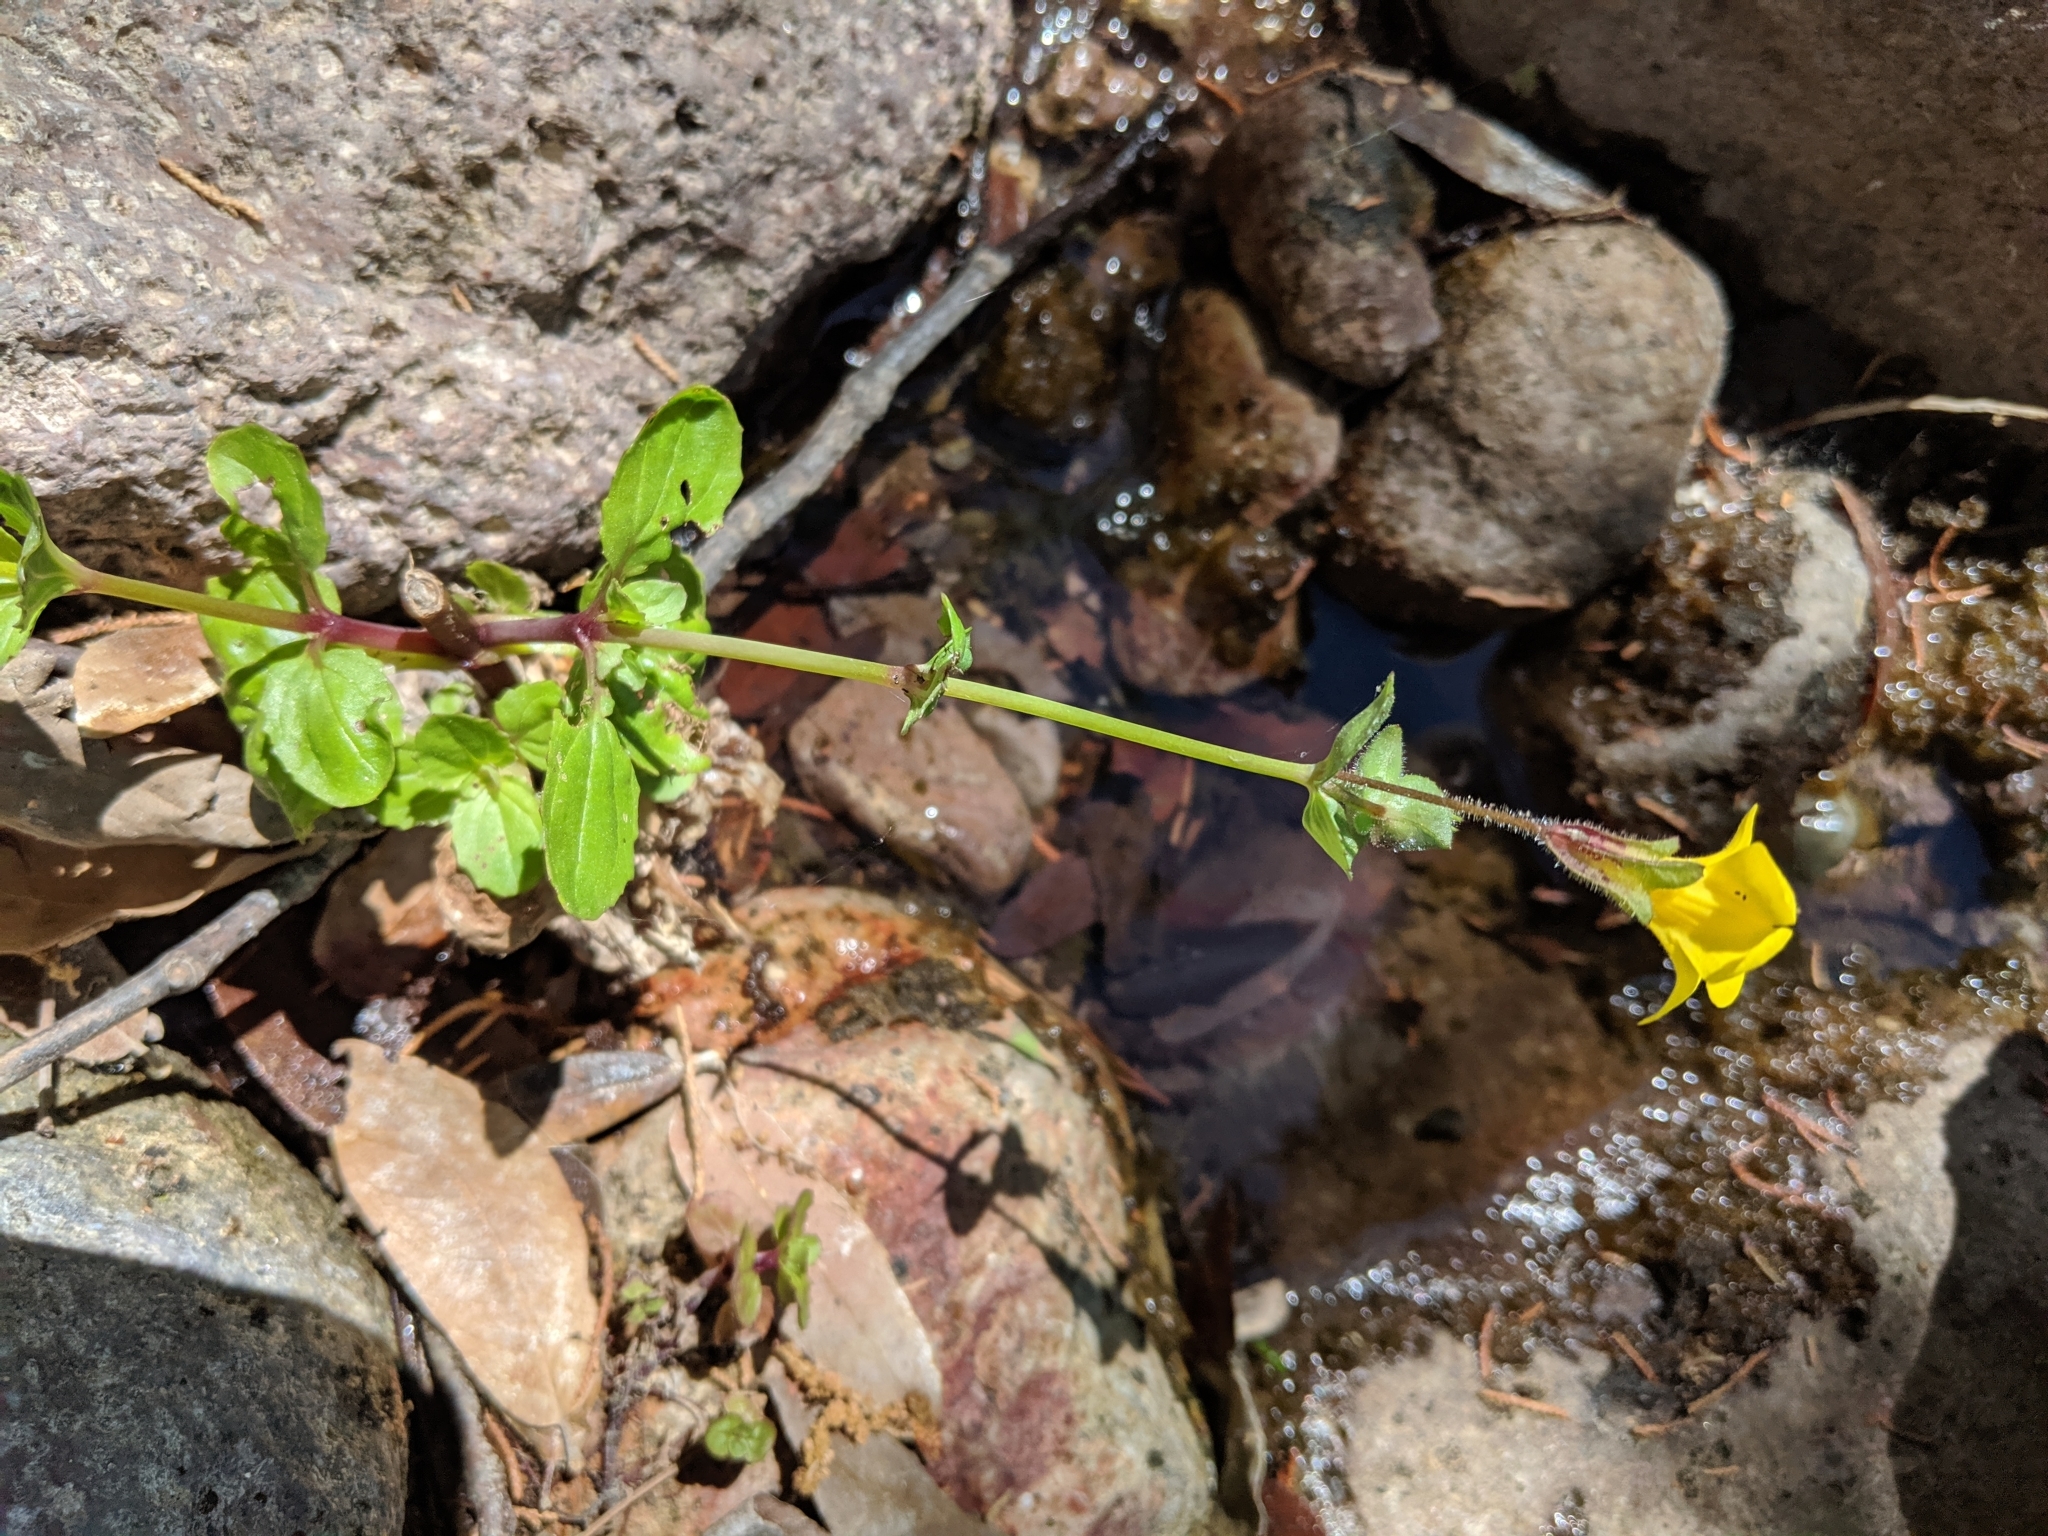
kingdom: Plantae
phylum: Tracheophyta
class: Magnoliopsida
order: Lamiales
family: Phrymaceae
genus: Erythranthe
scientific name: Erythranthe guttata
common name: Monkeyflower
